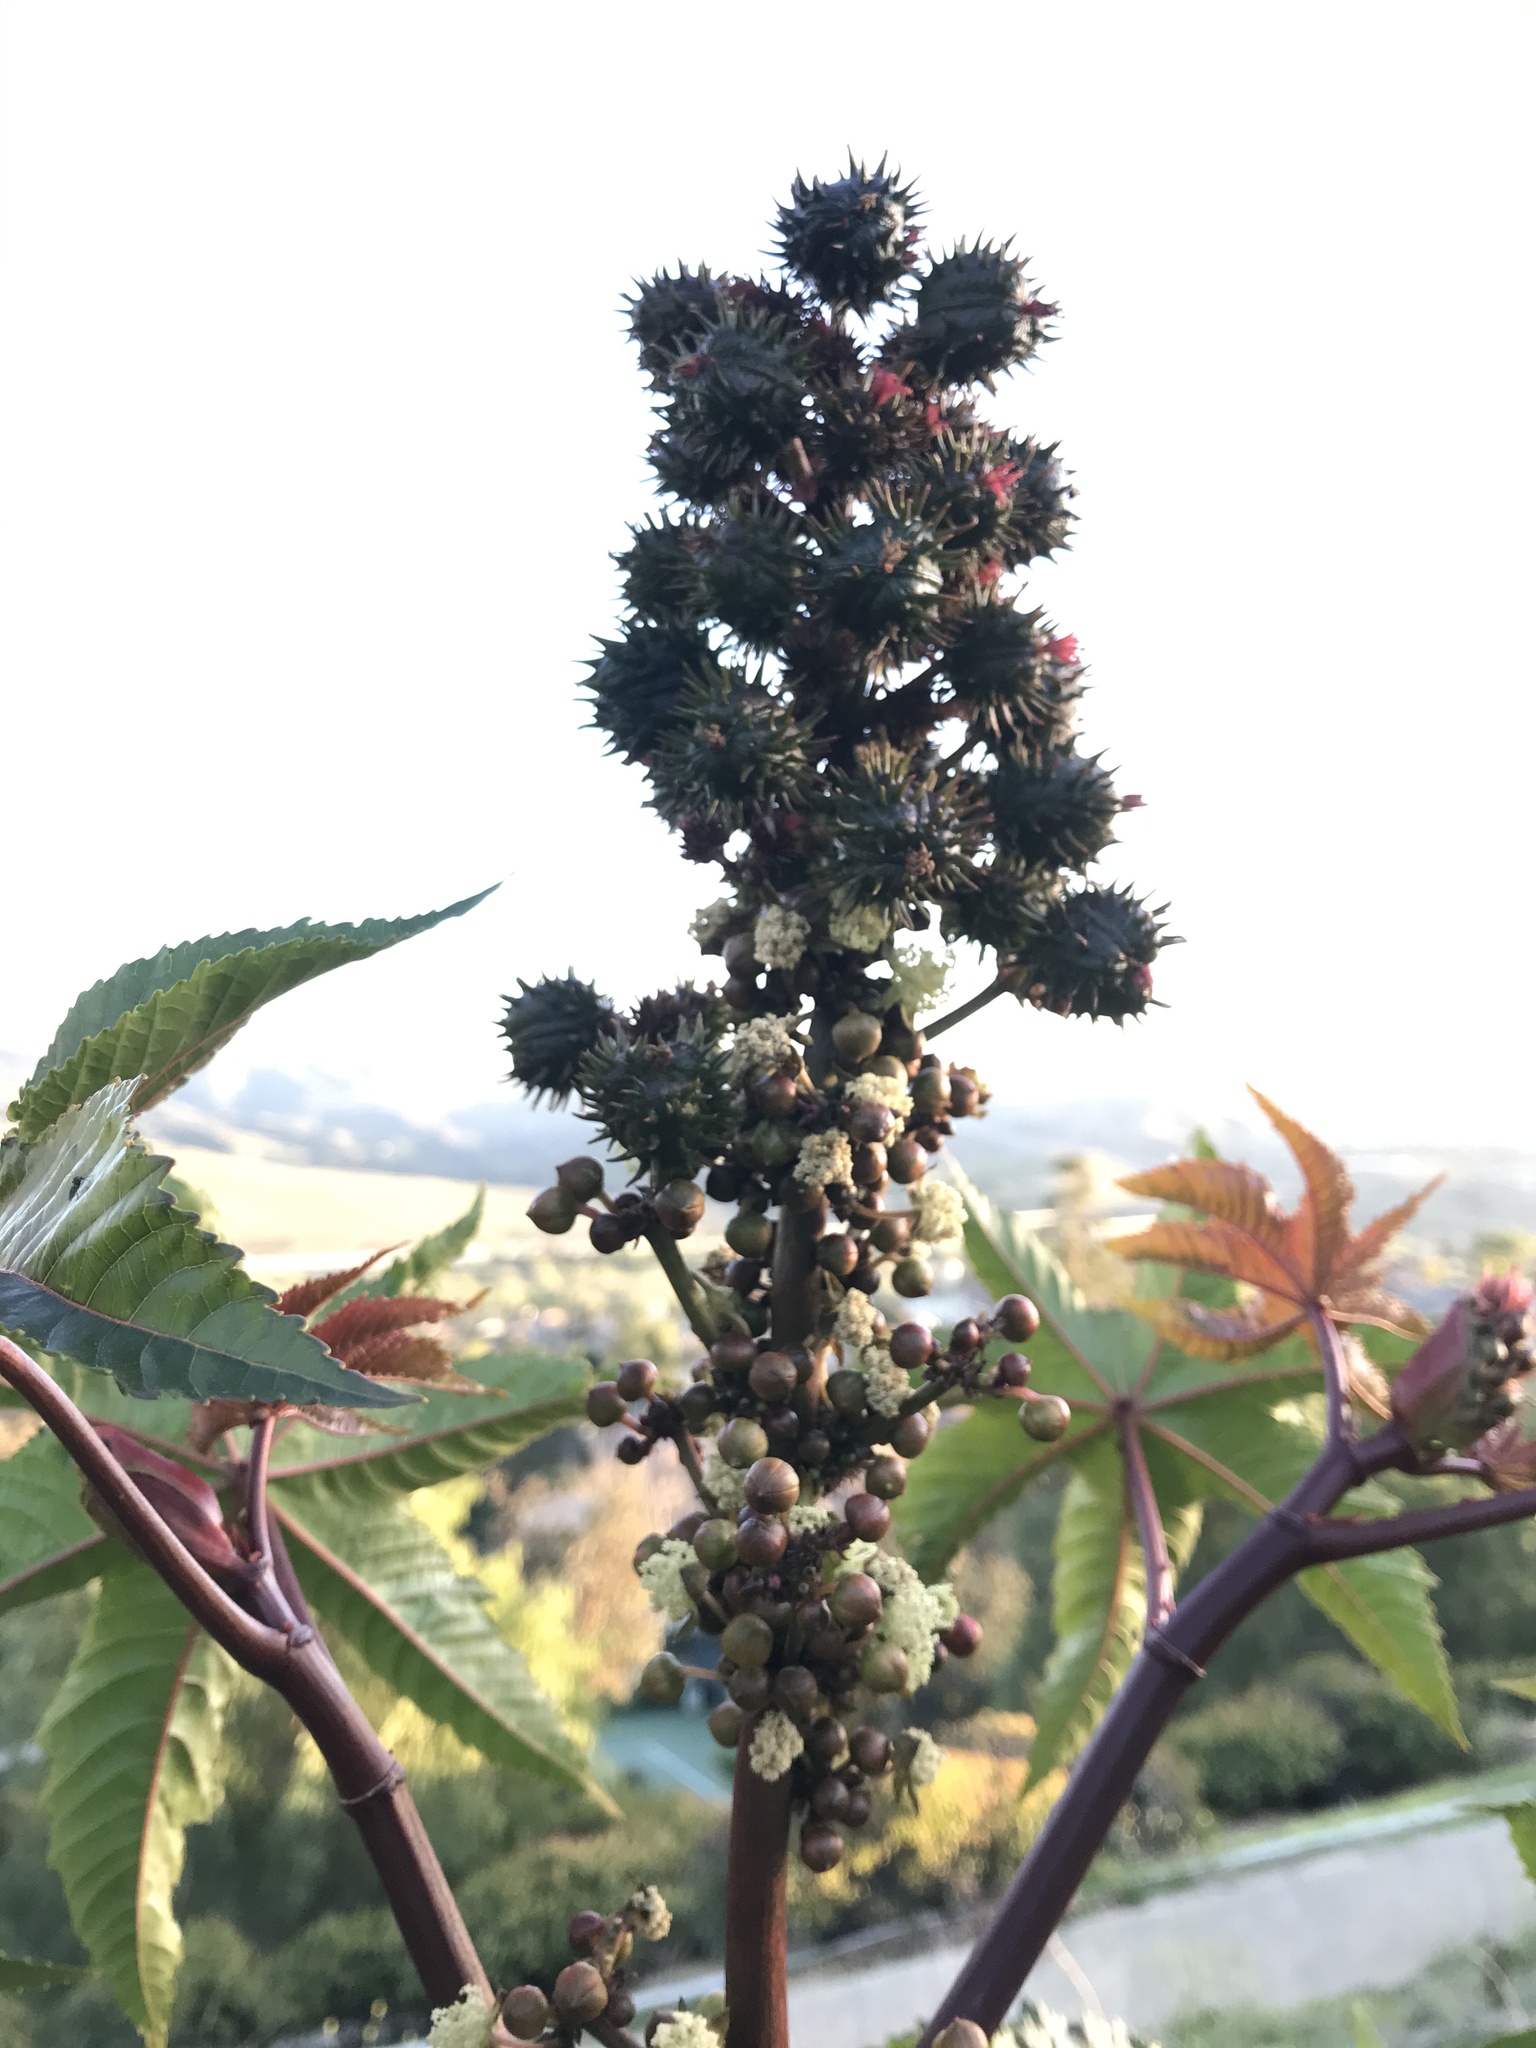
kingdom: Plantae
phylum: Tracheophyta
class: Magnoliopsida
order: Malpighiales
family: Euphorbiaceae
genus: Ricinus
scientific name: Ricinus communis
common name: Castor-oil-plant
